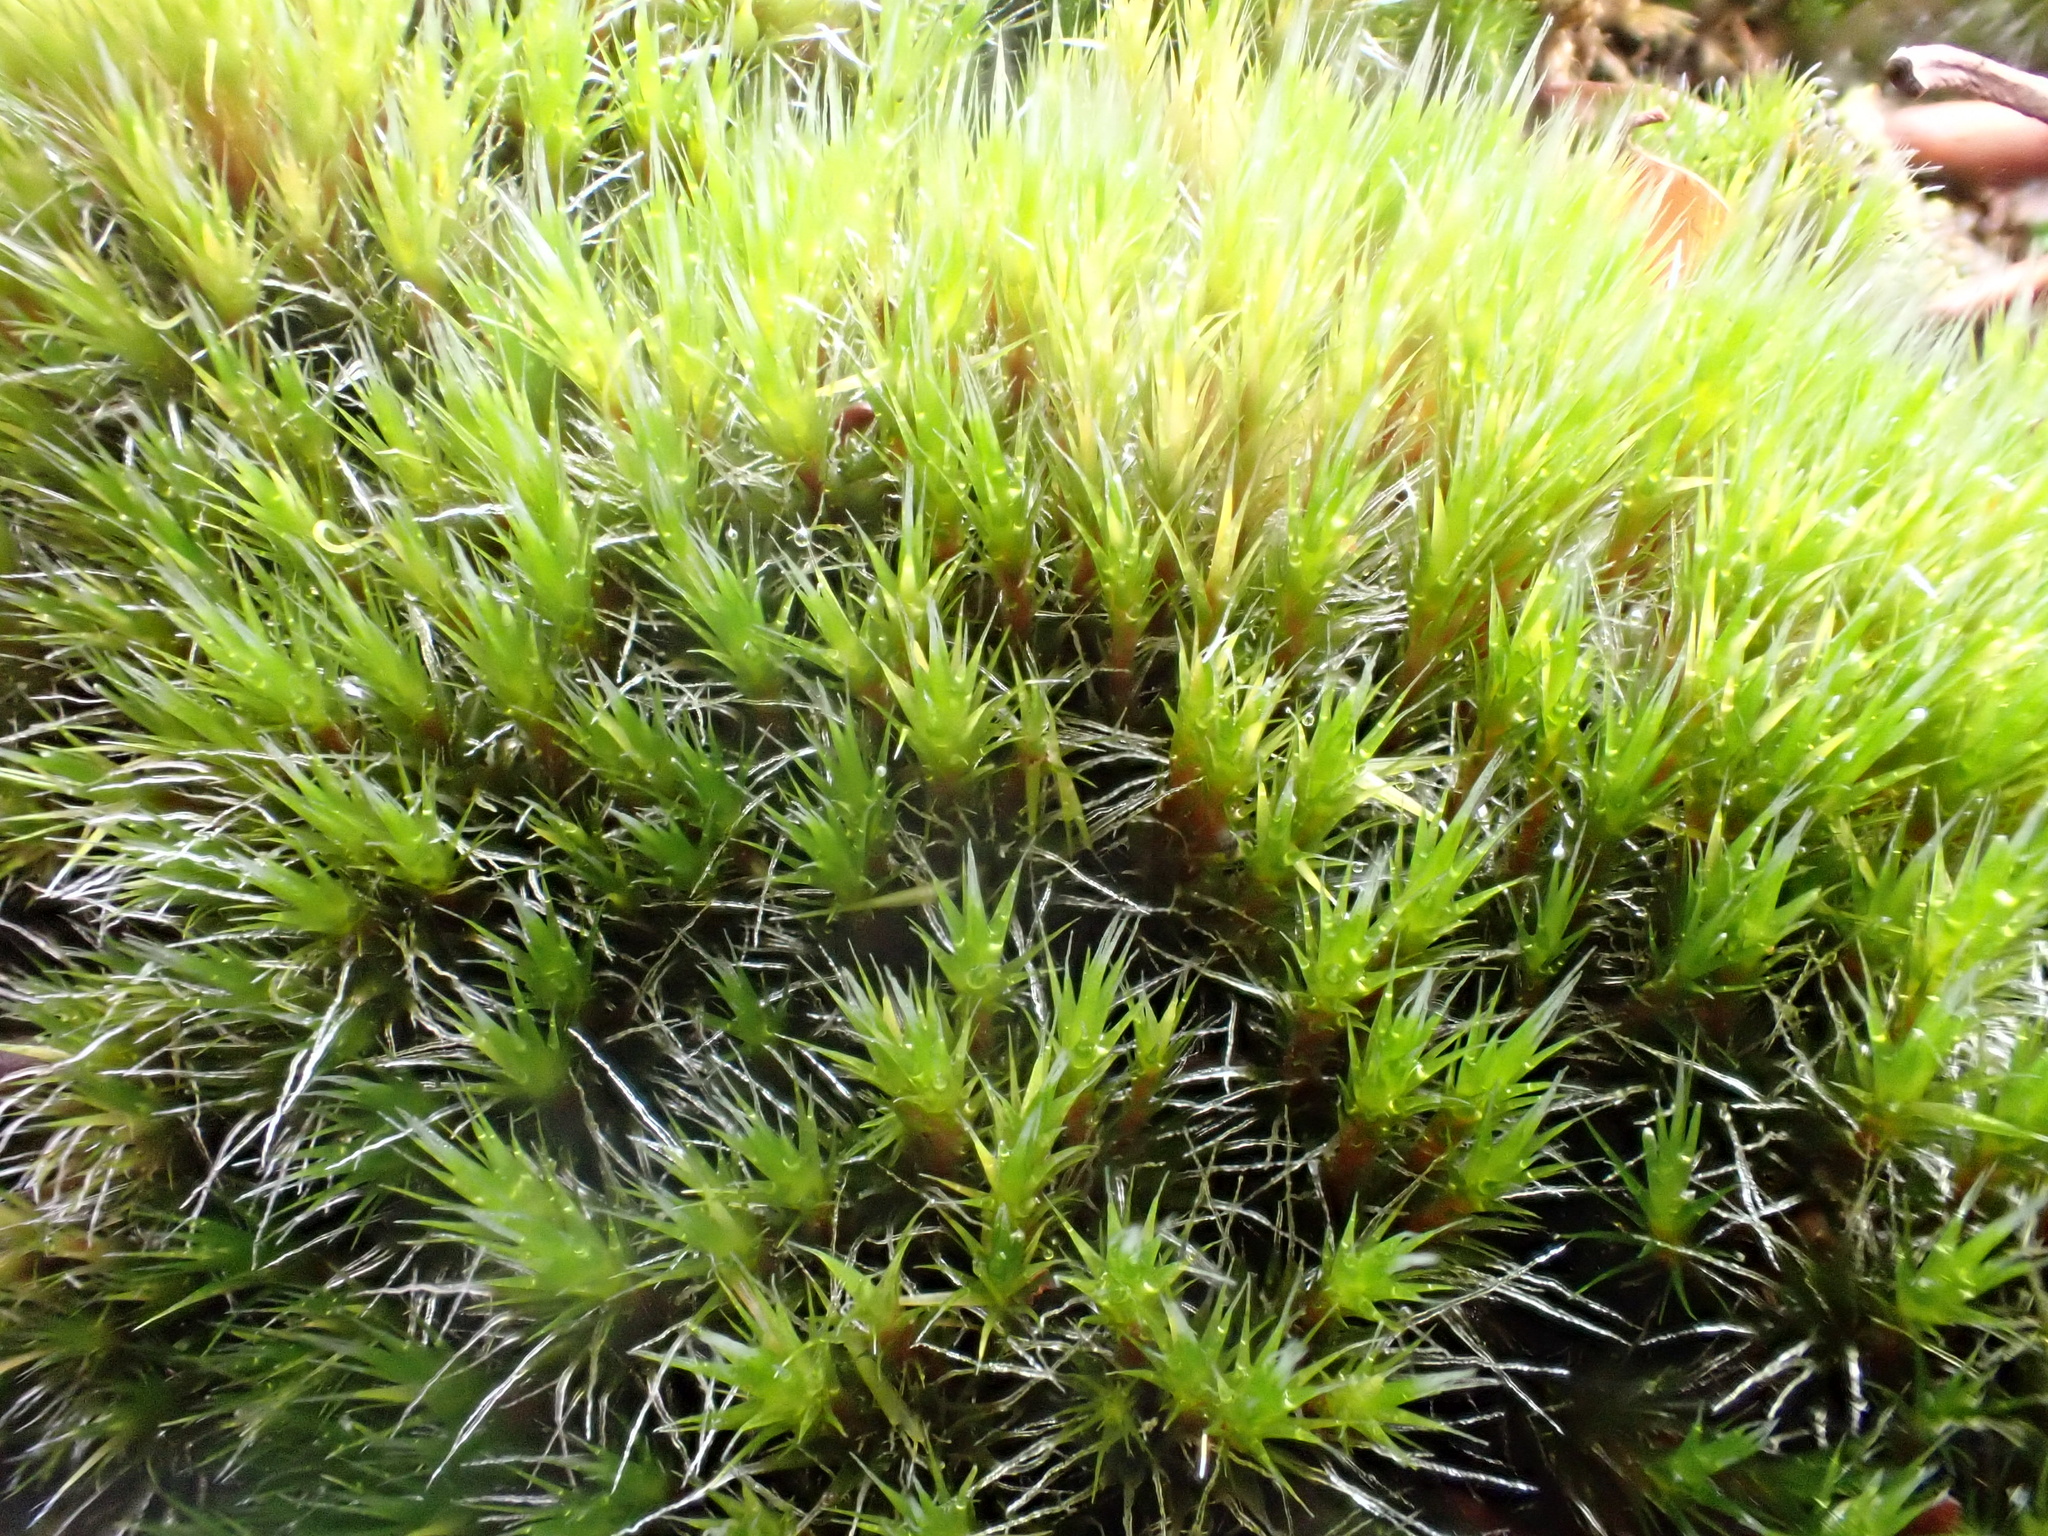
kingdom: Plantae
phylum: Bryophyta
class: Bryopsida
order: Dicranales
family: Leucobryaceae
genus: Campylopus
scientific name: Campylopus introflexus
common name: Heath star moss
